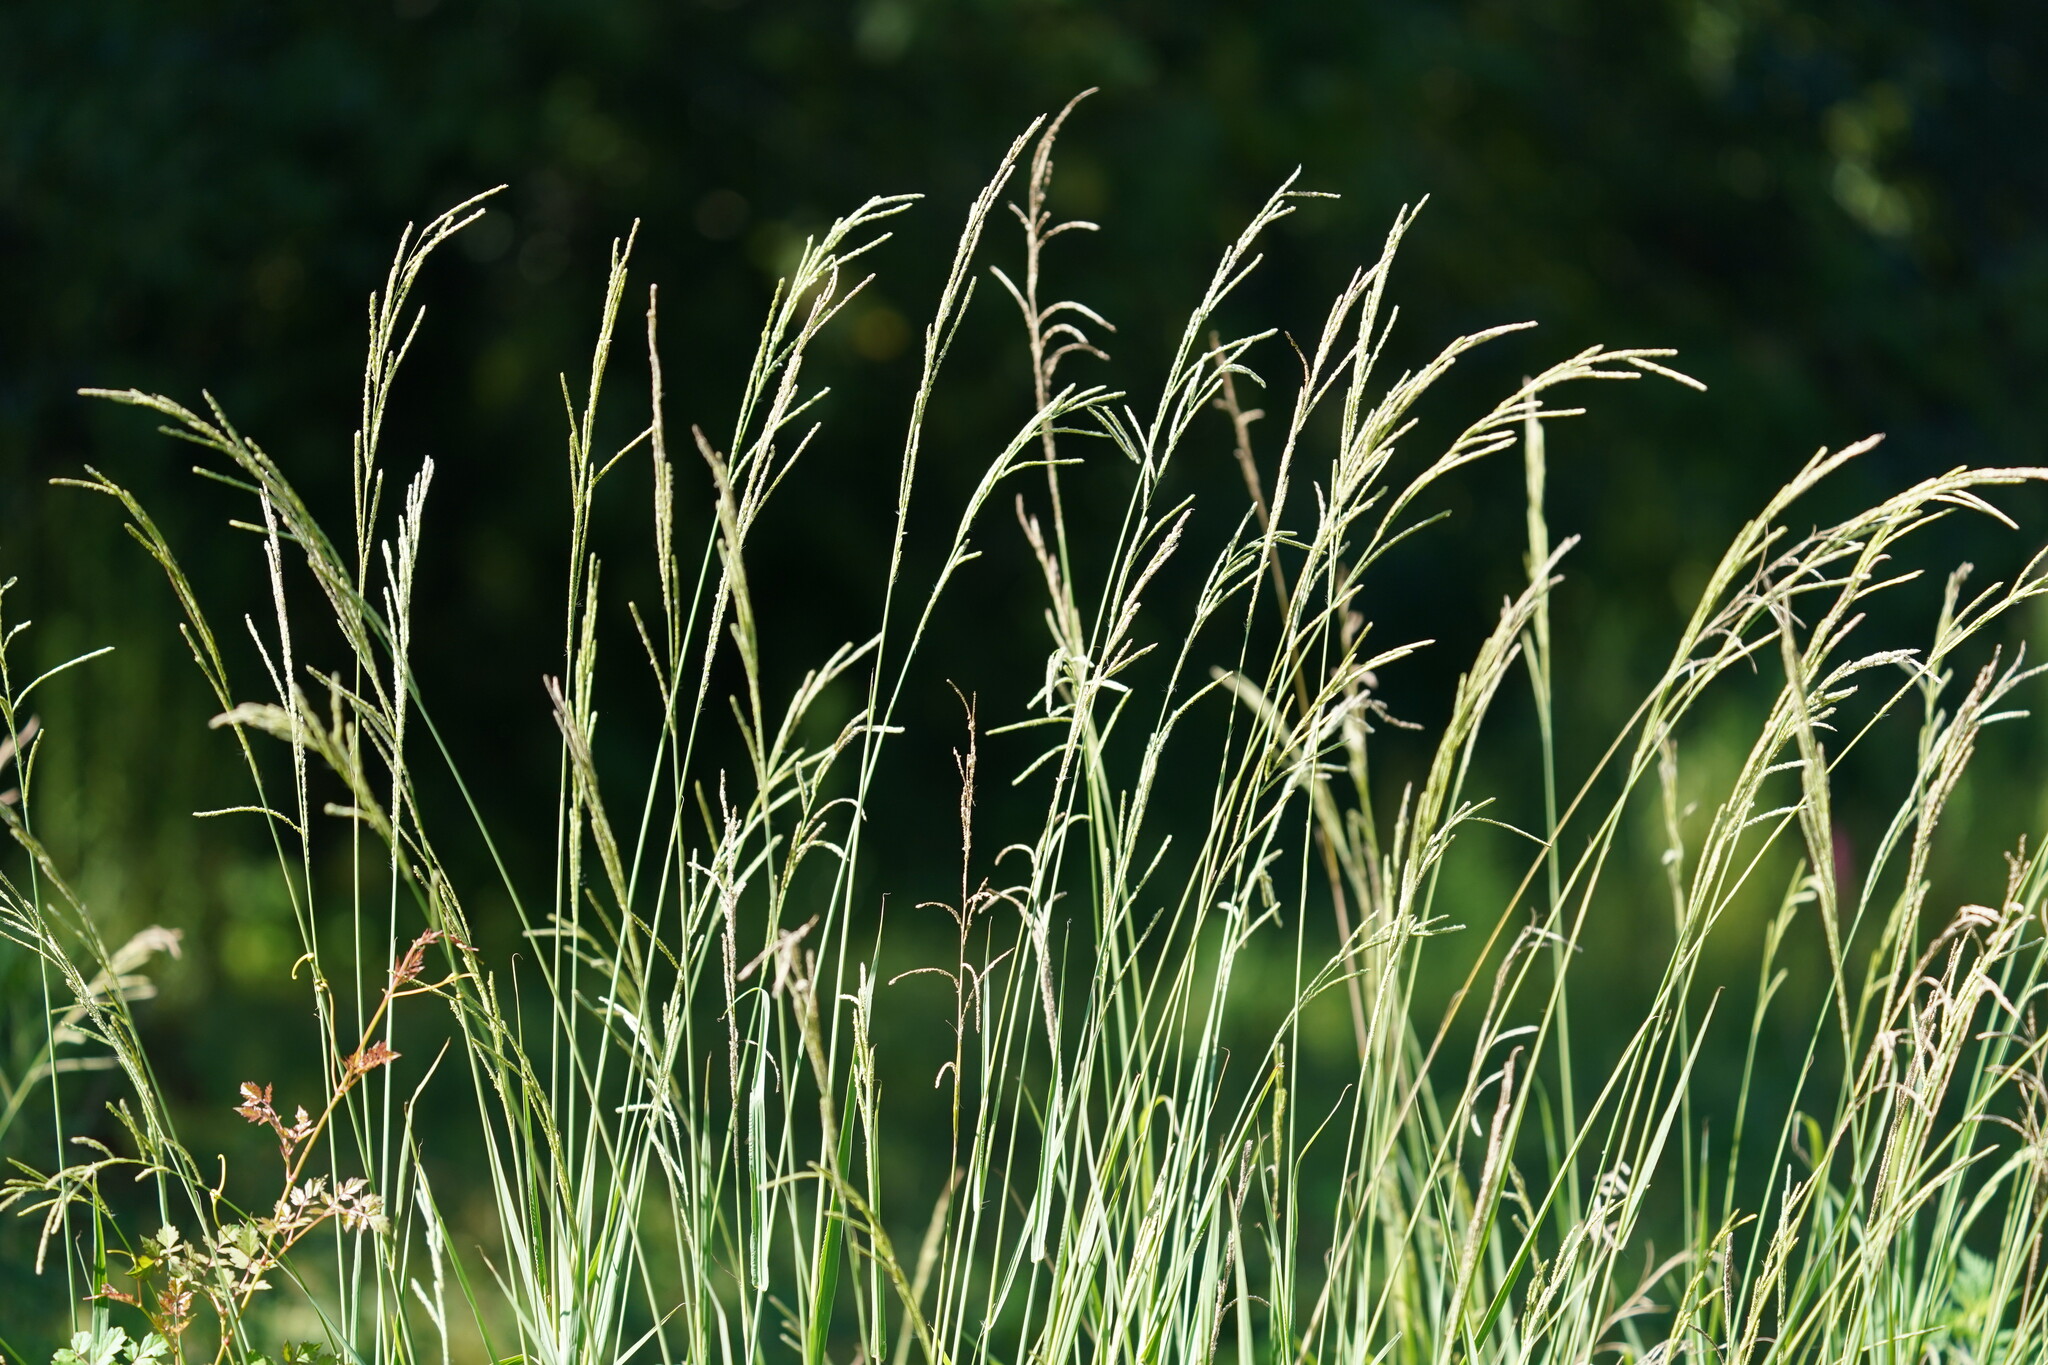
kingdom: Plantae
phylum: Tracheophyta
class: Liliopsida
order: Poales
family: Poaceae
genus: Paspalum
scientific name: Paspalum urvillei
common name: Vasey's grass
